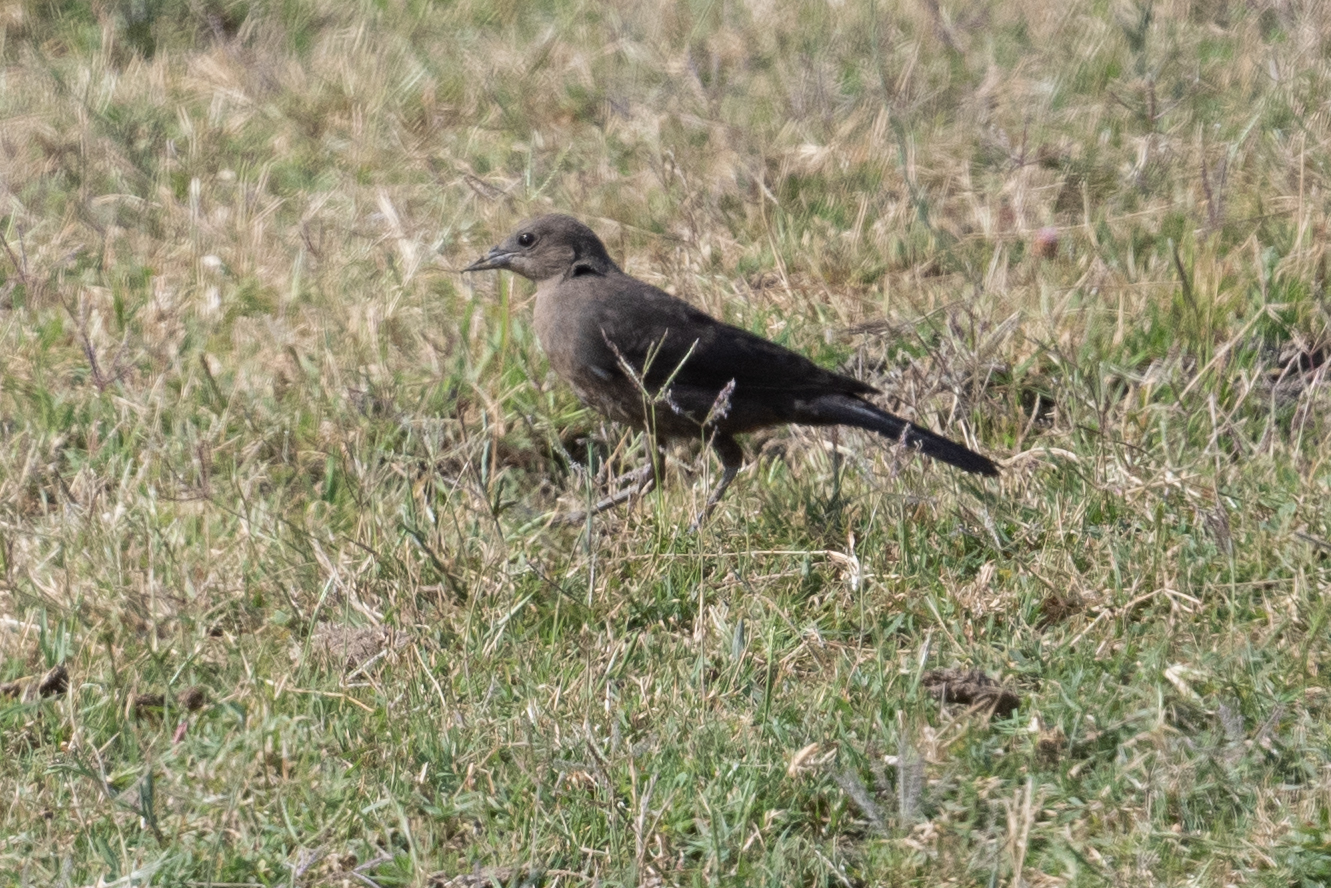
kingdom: Animalia
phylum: Chordata
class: Aves
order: Passeriformes
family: Icteridae
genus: Euphagus
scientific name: Euphagus cyanocephalus
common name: Brewer's blackbird
